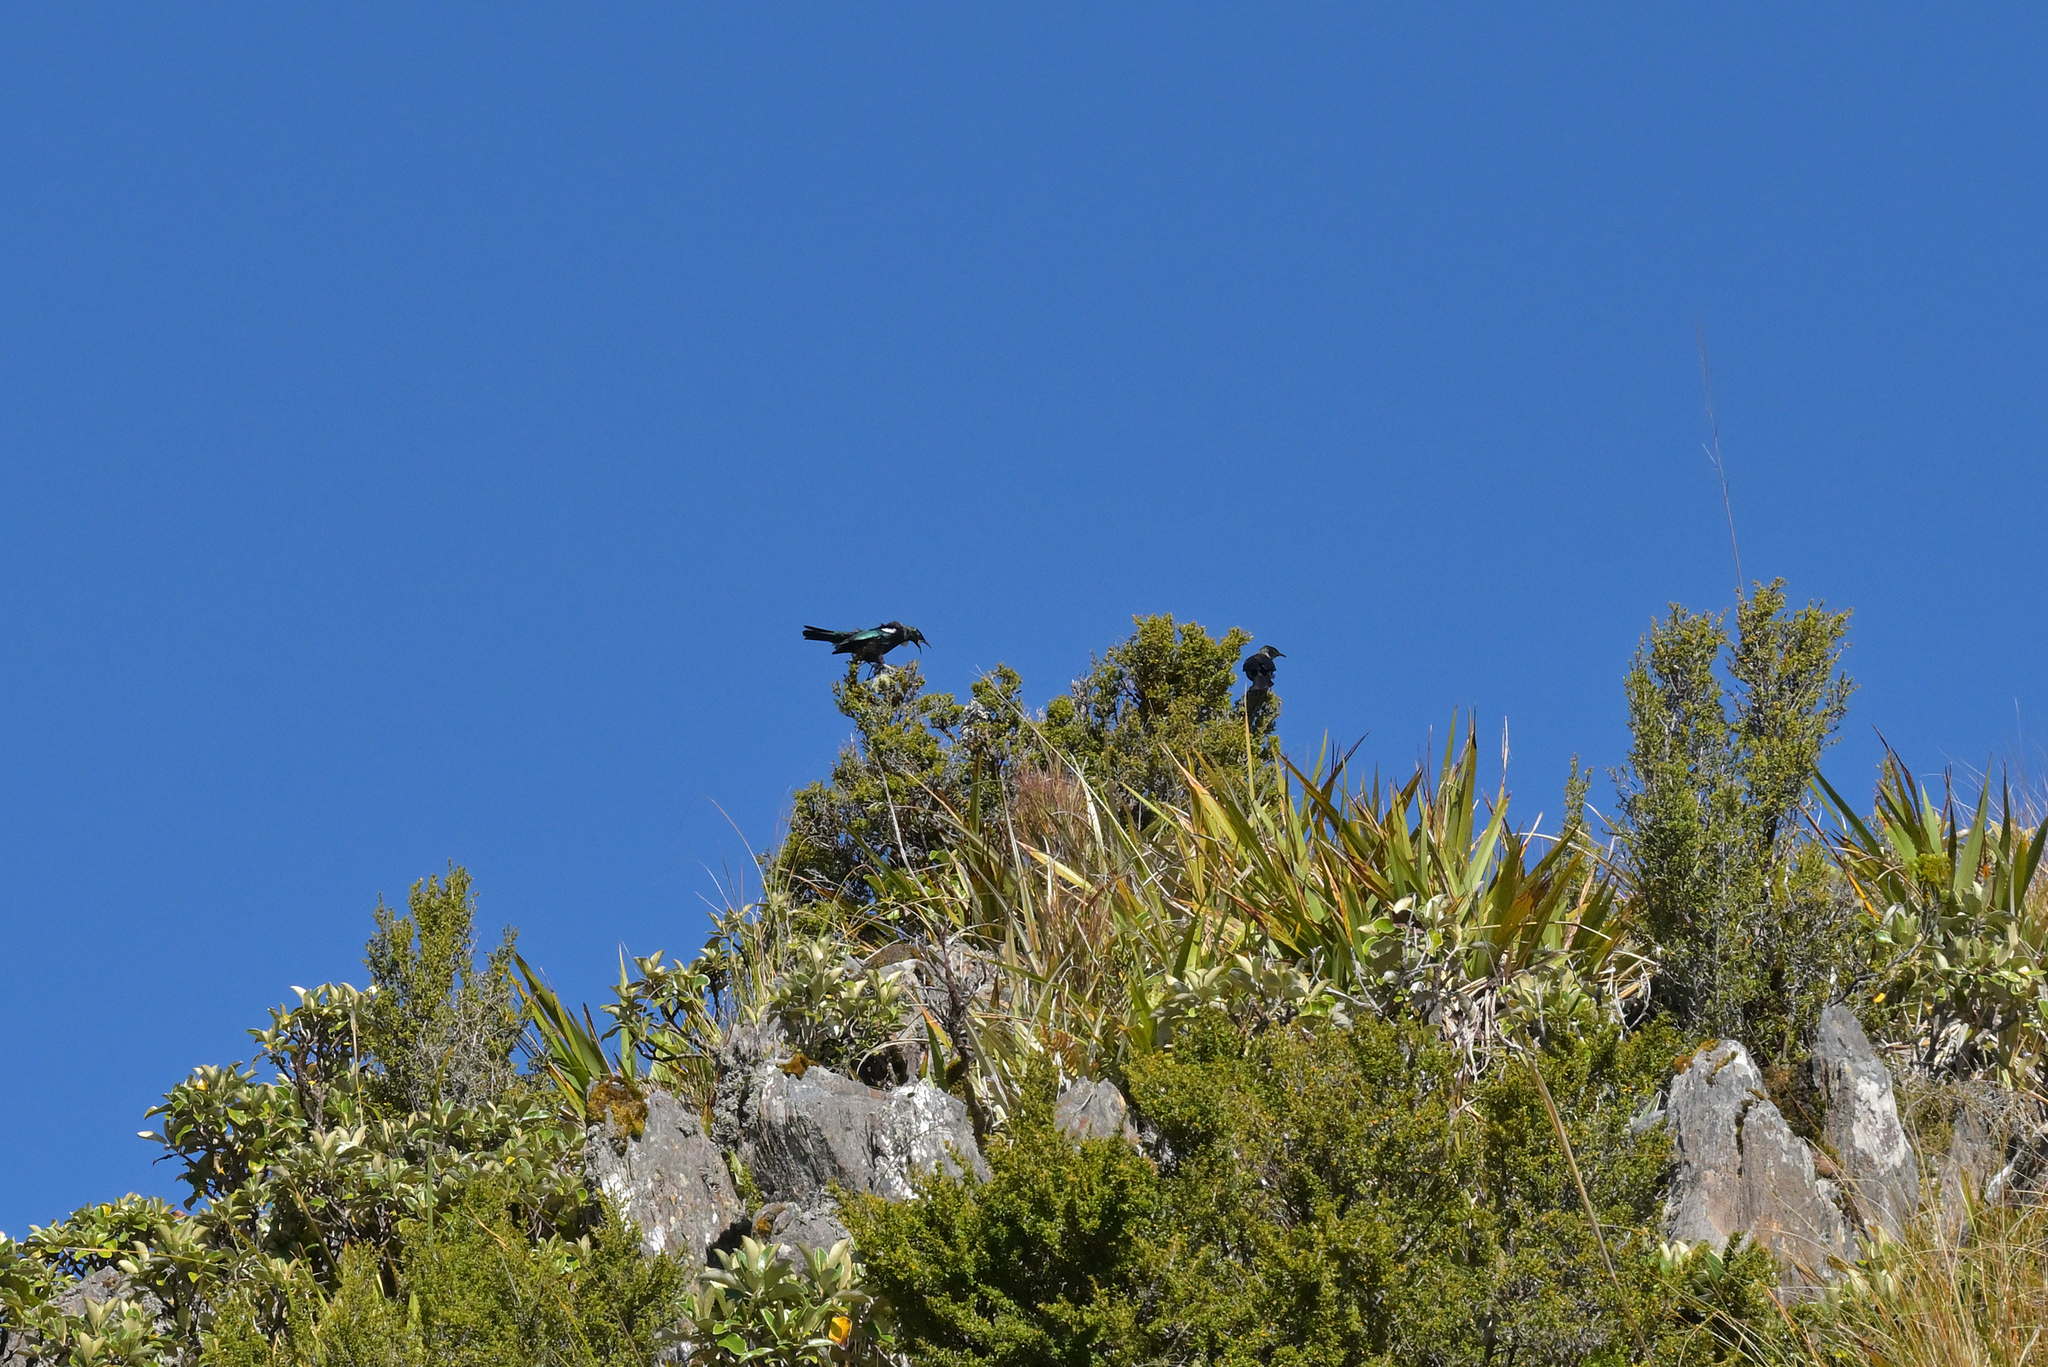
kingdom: Animalia
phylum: Chordata
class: Aves
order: Passeriformes
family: Meliphagidae
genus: Prosthemadera
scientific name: Prosthemadera novaeseelandiae
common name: Tui
